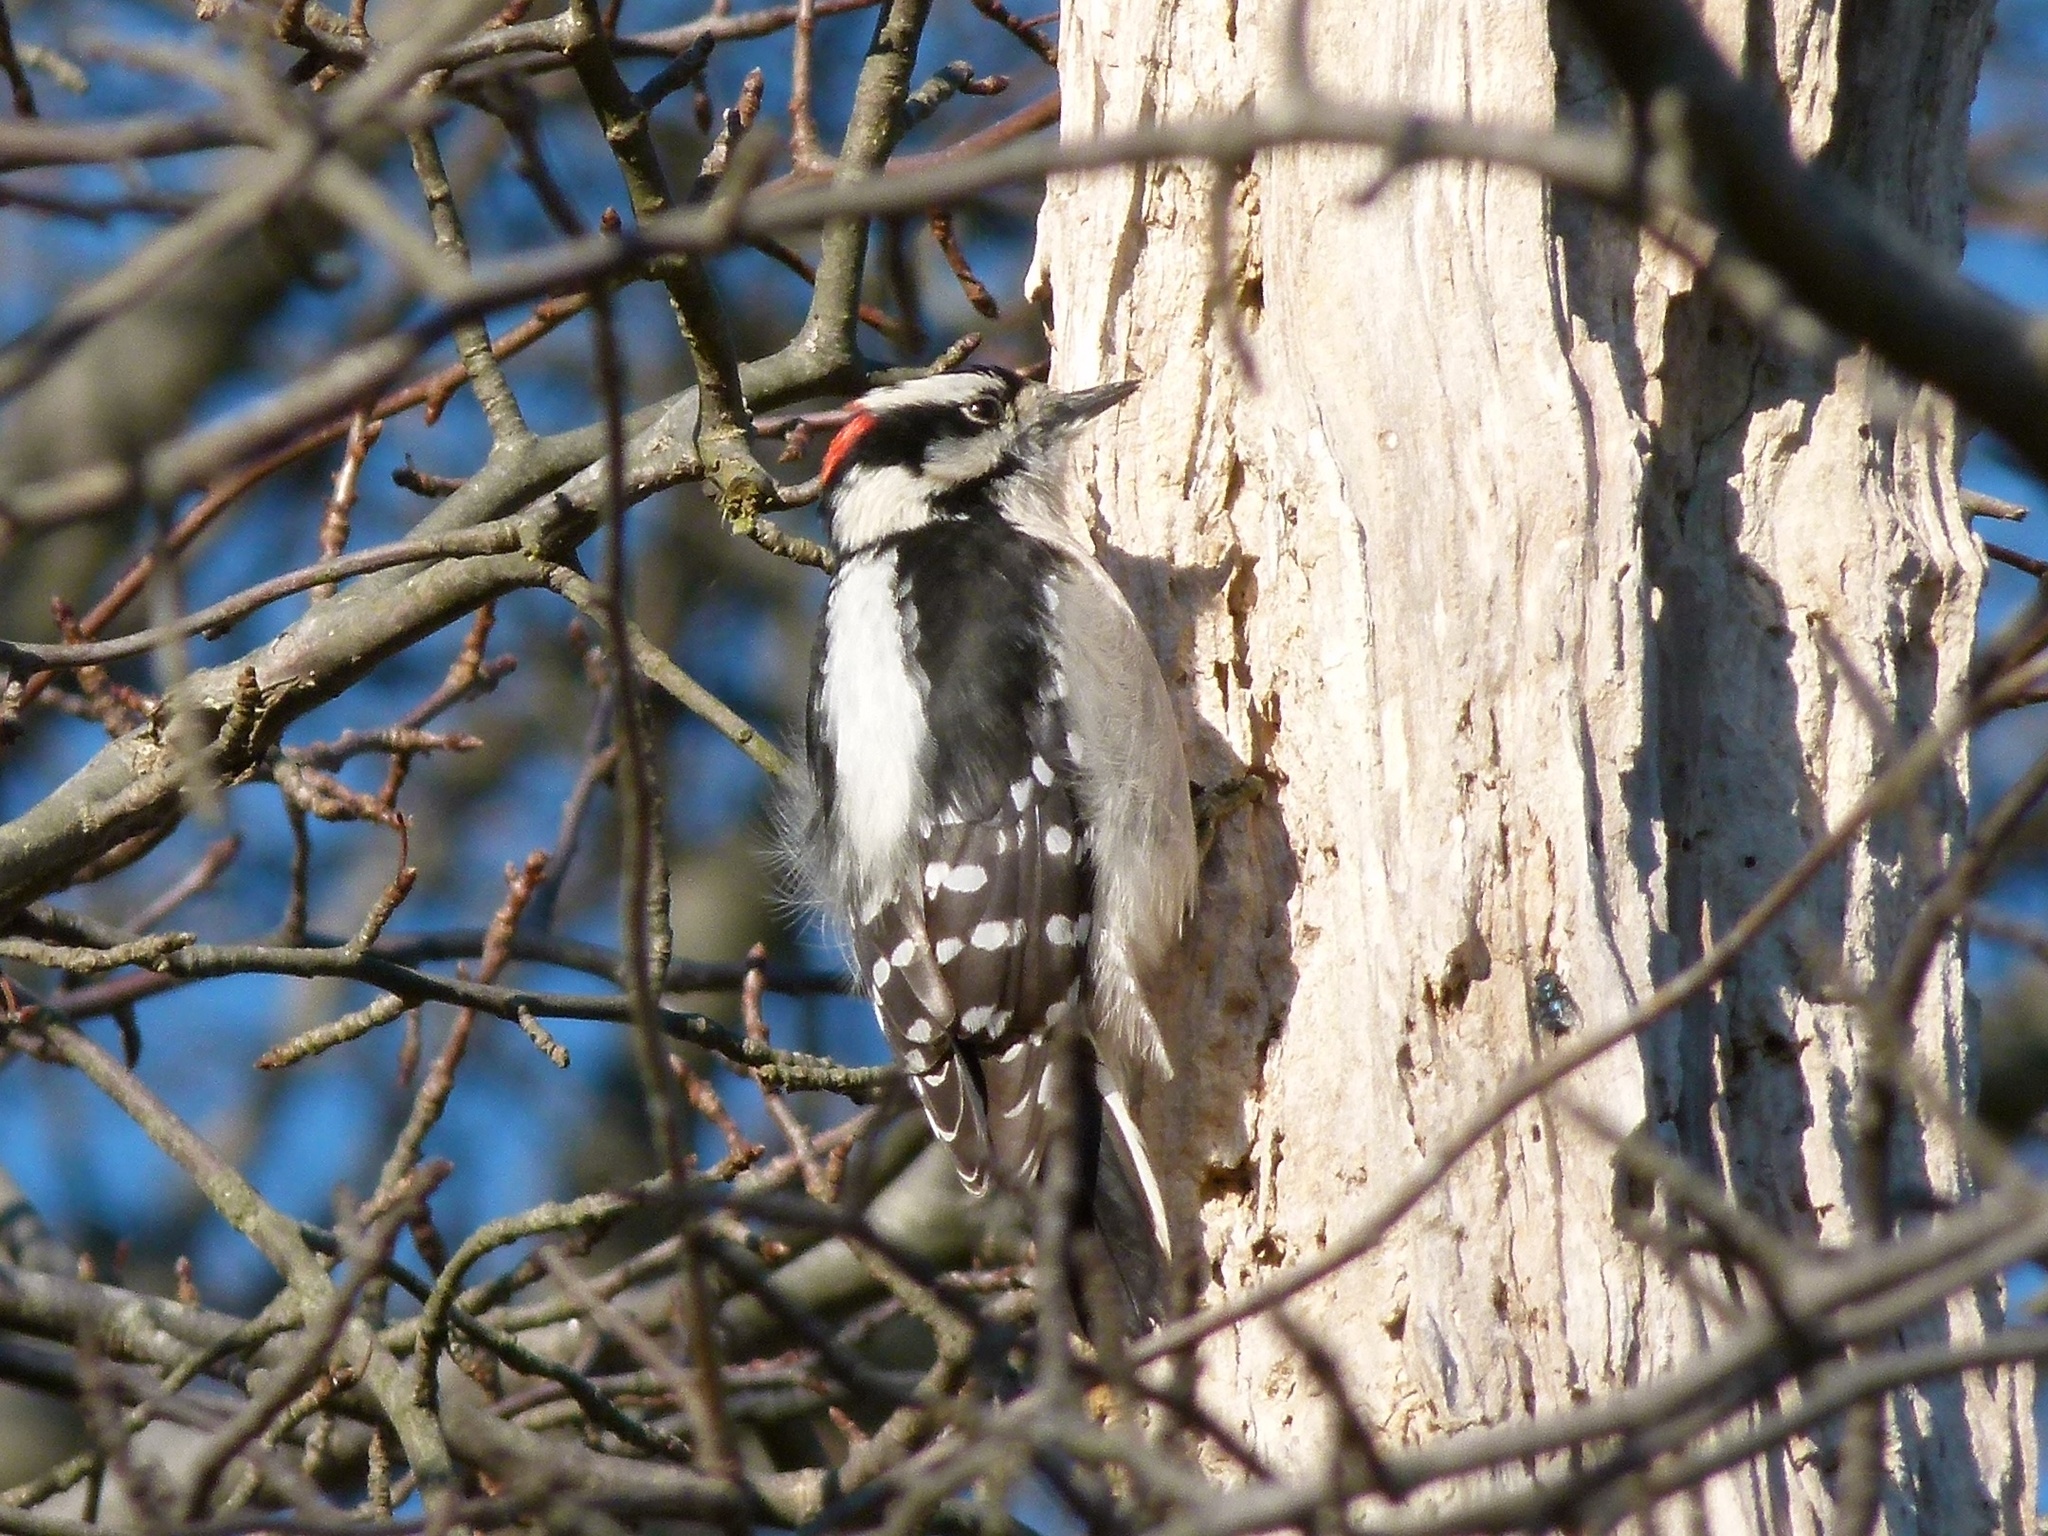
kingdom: Animalia
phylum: Chordata
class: Aves
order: Piciformes
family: Picidae
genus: Dryobates
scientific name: Dryobates pubescens
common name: Downy woodpecker
